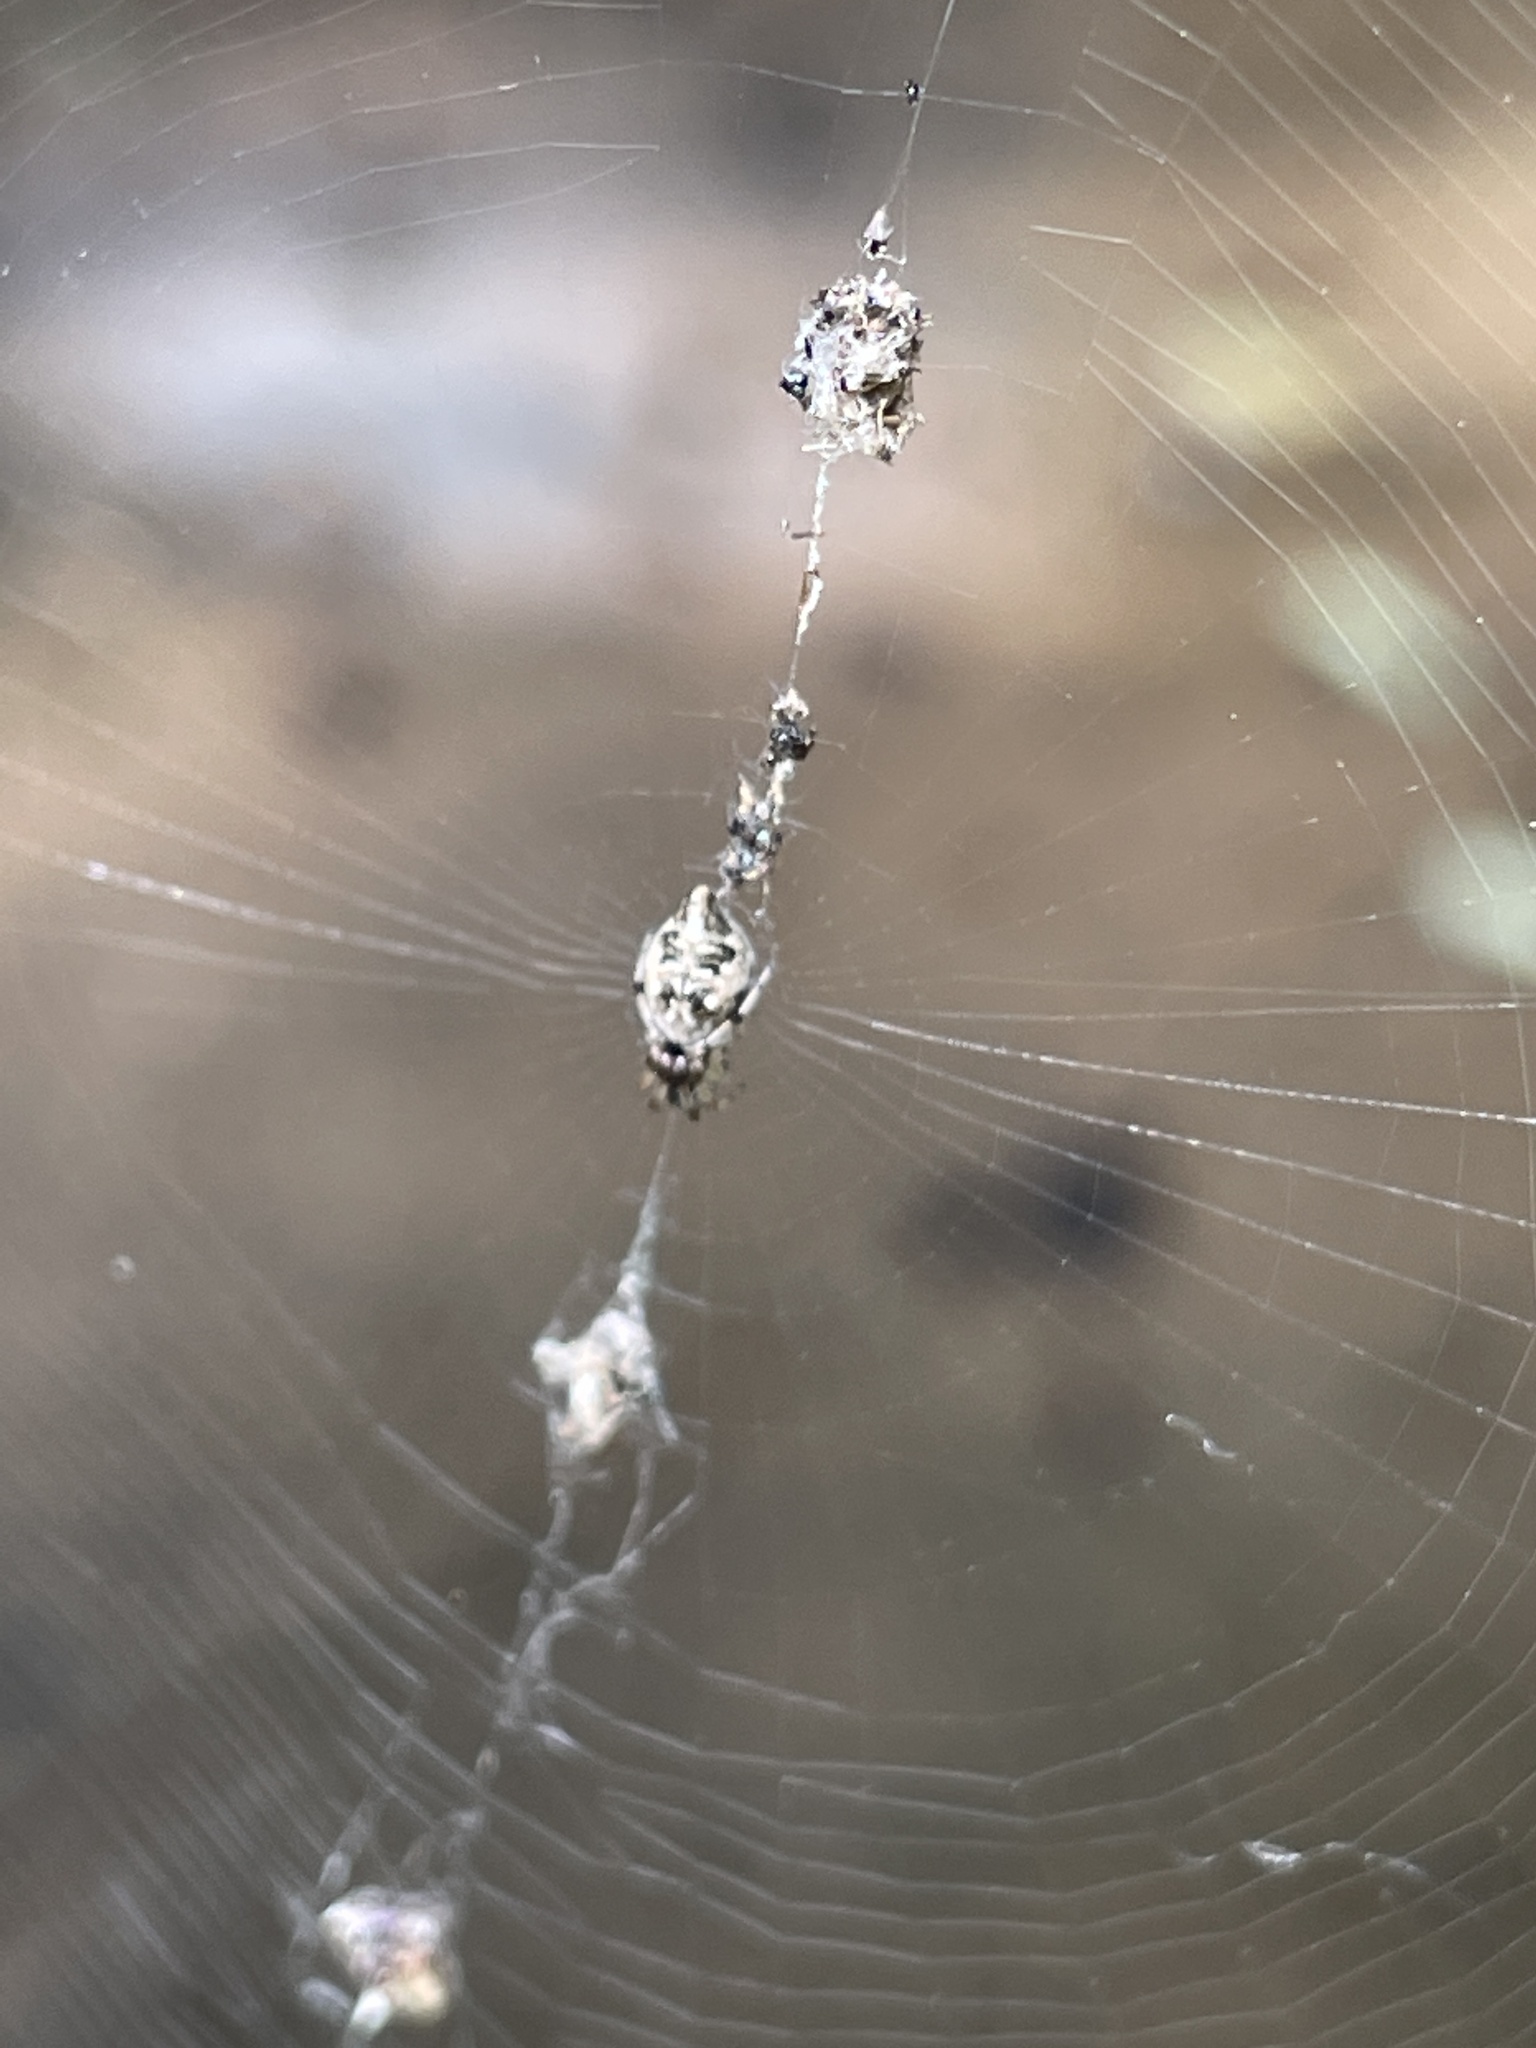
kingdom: Animalia
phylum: Arthropoda
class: Arachnida
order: Araneae
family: Araneidae
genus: Cyclosa
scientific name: Cyclosa turbinata
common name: Orb weavers
